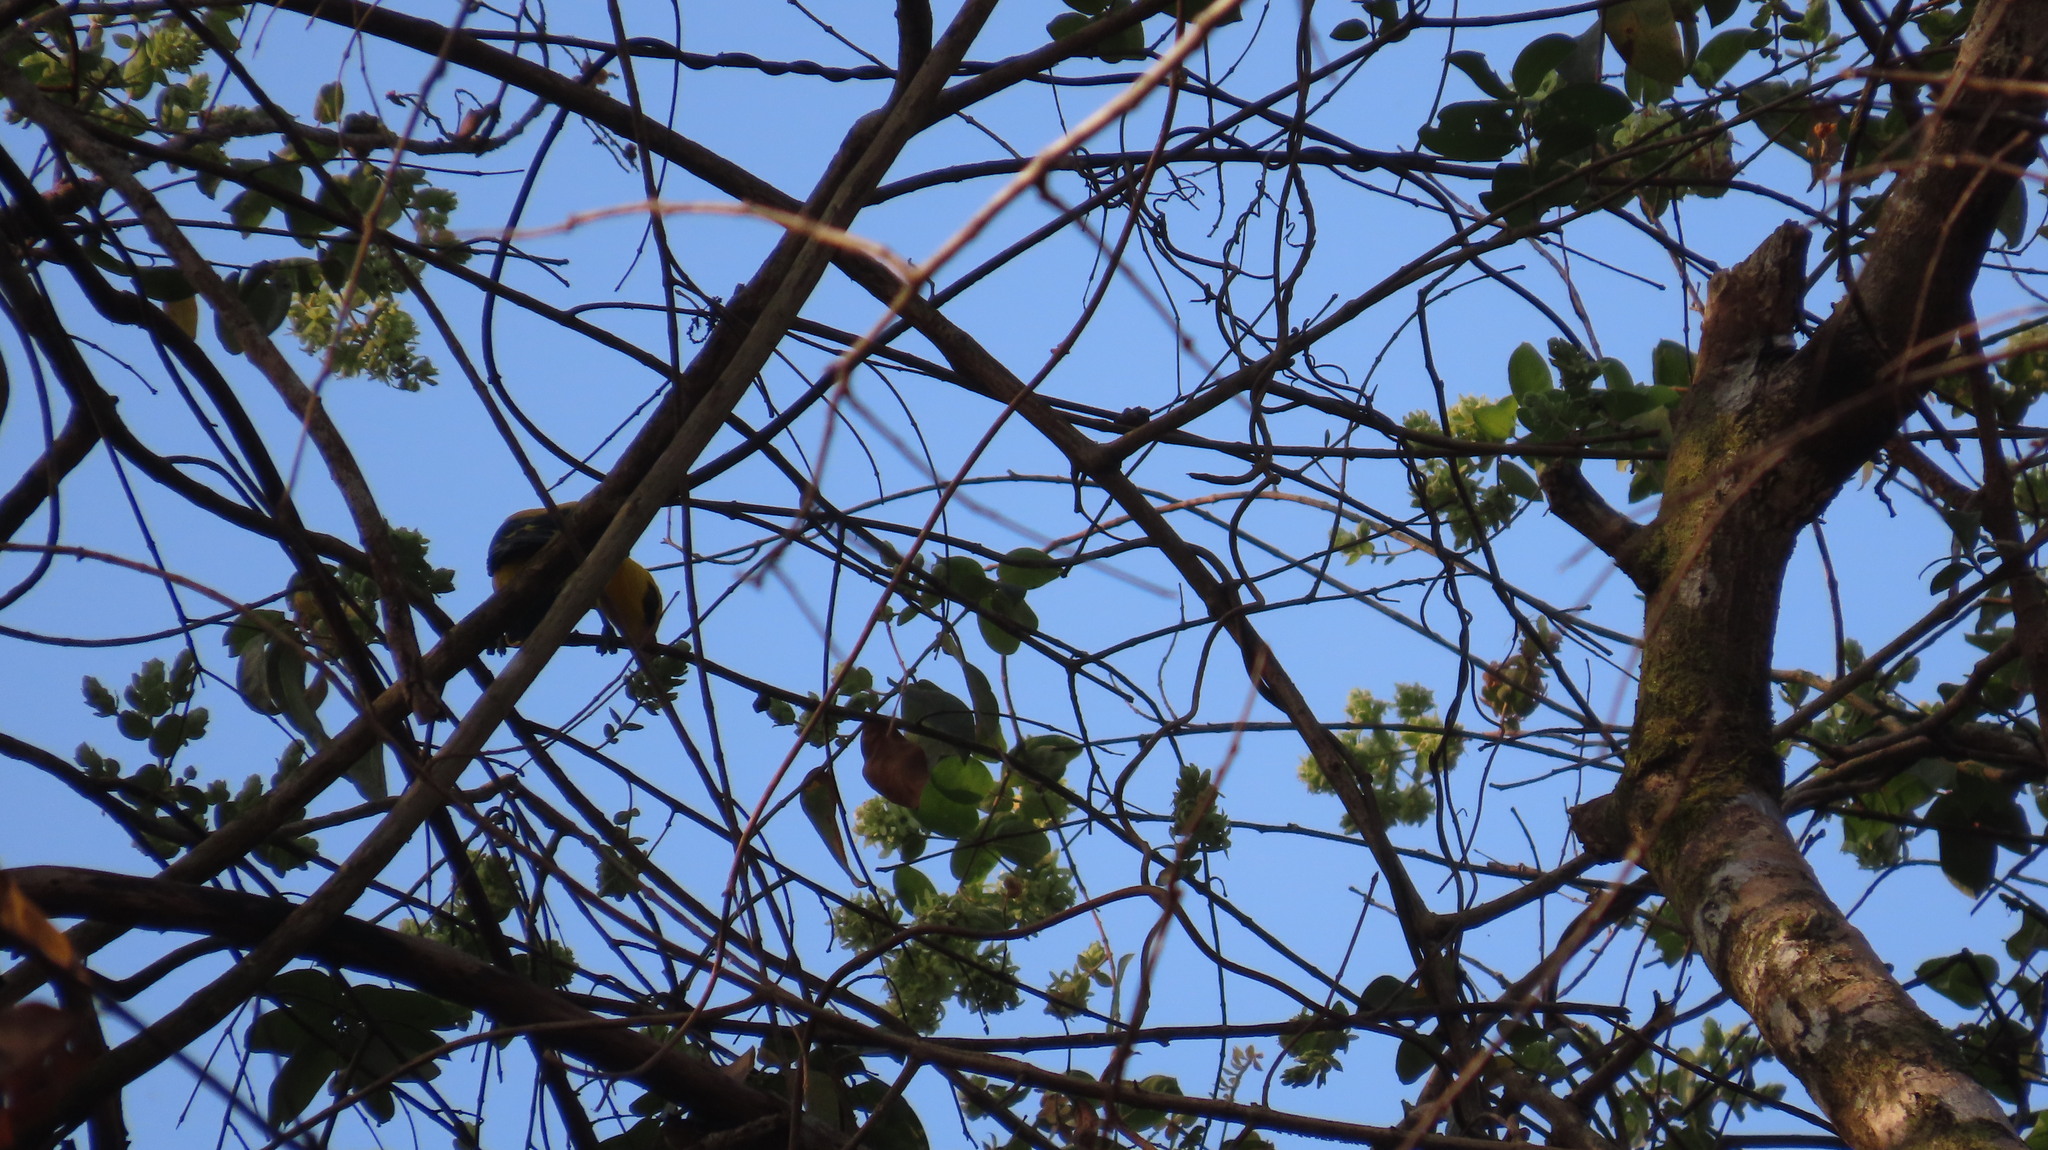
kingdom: Animalia
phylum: Chordata
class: Aves
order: Passeriformes
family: Oriolidae
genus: Oriolus
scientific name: Oriolus kundoo
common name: Indian golden oriole
